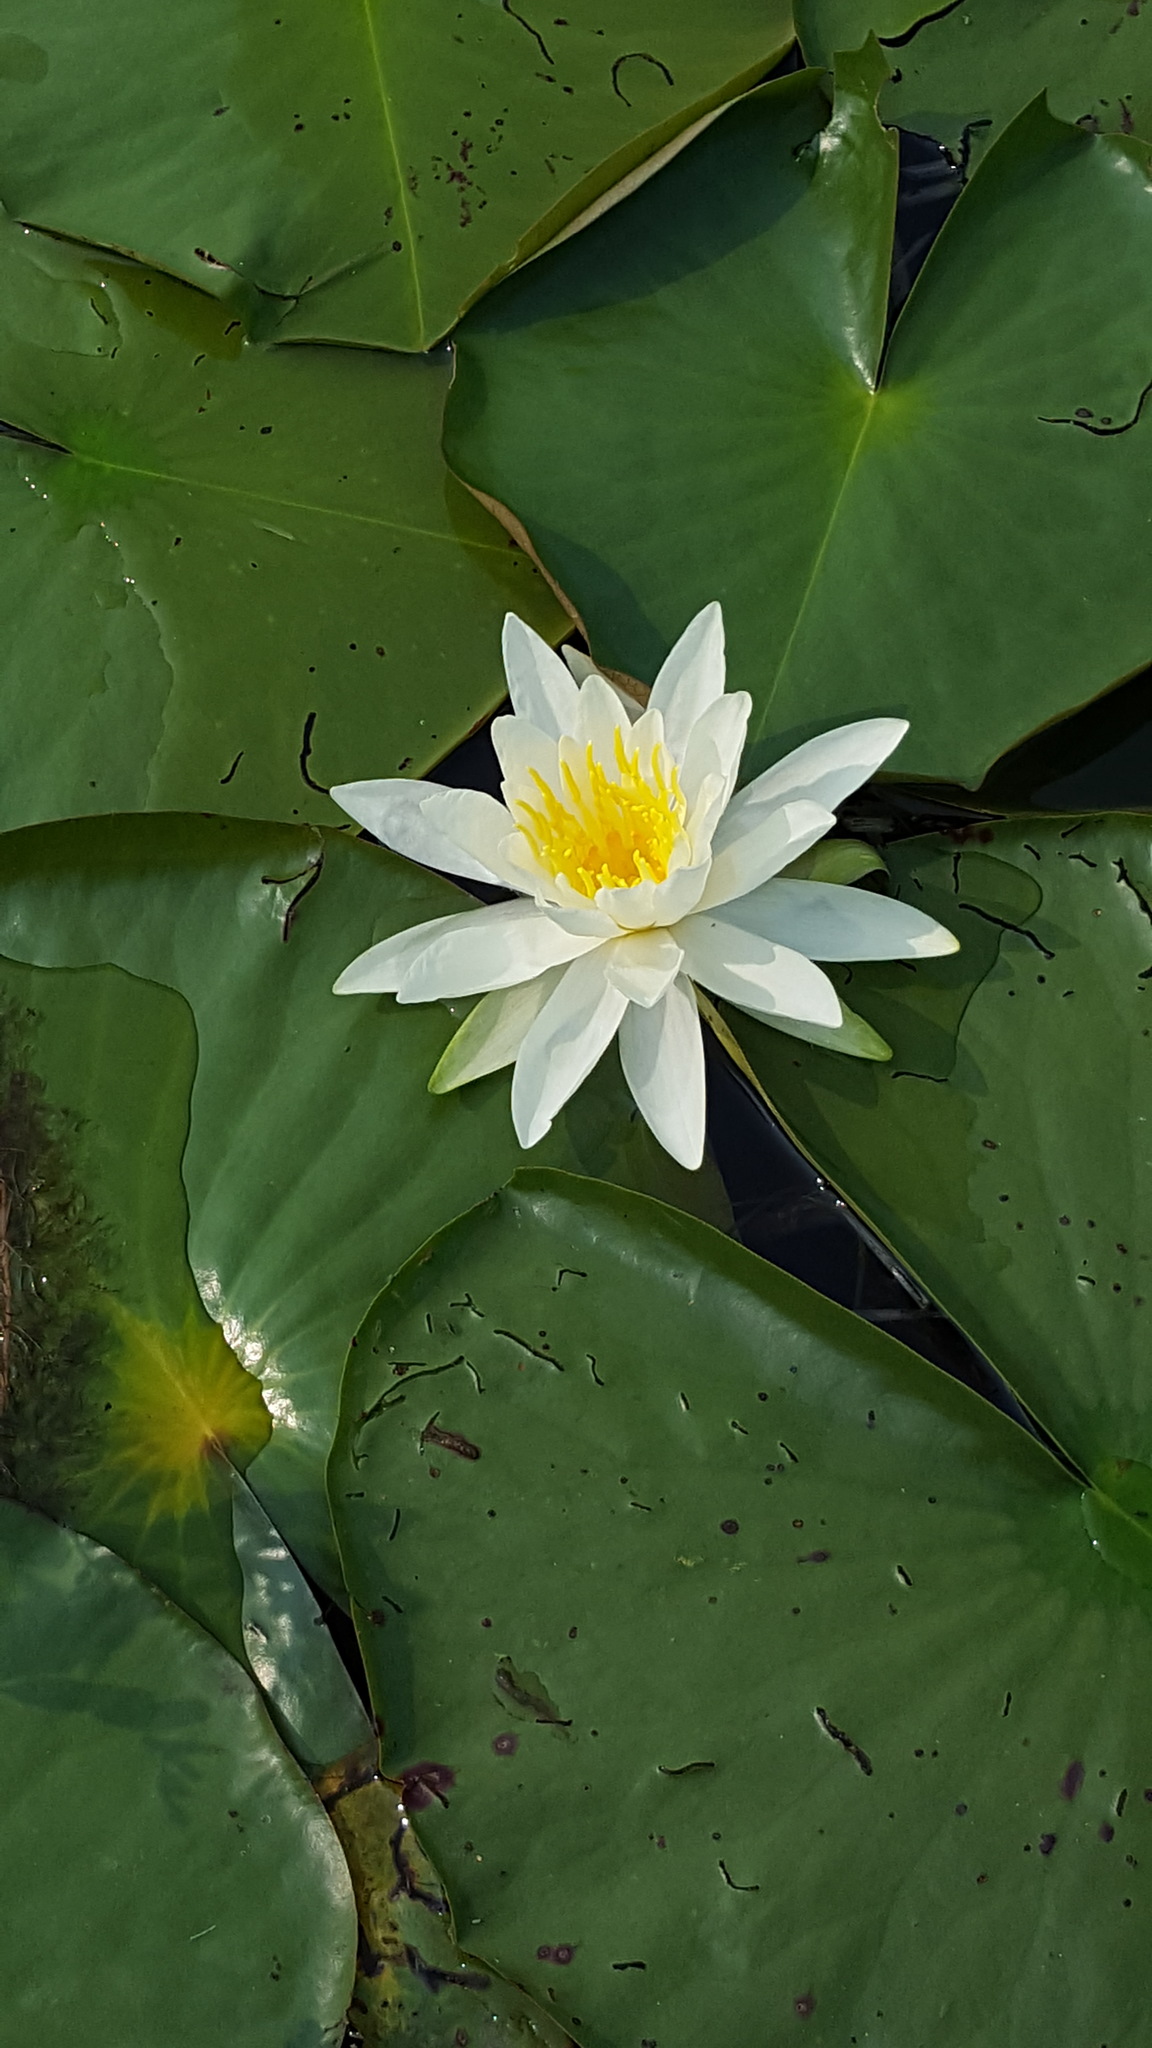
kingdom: Plantae
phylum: Tracheophyta
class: Magnoliopsida
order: Nymphaeales
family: Nymphaeaceae
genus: Nymphaea
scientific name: Nymphaea odorata
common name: Fragrant water-lily
